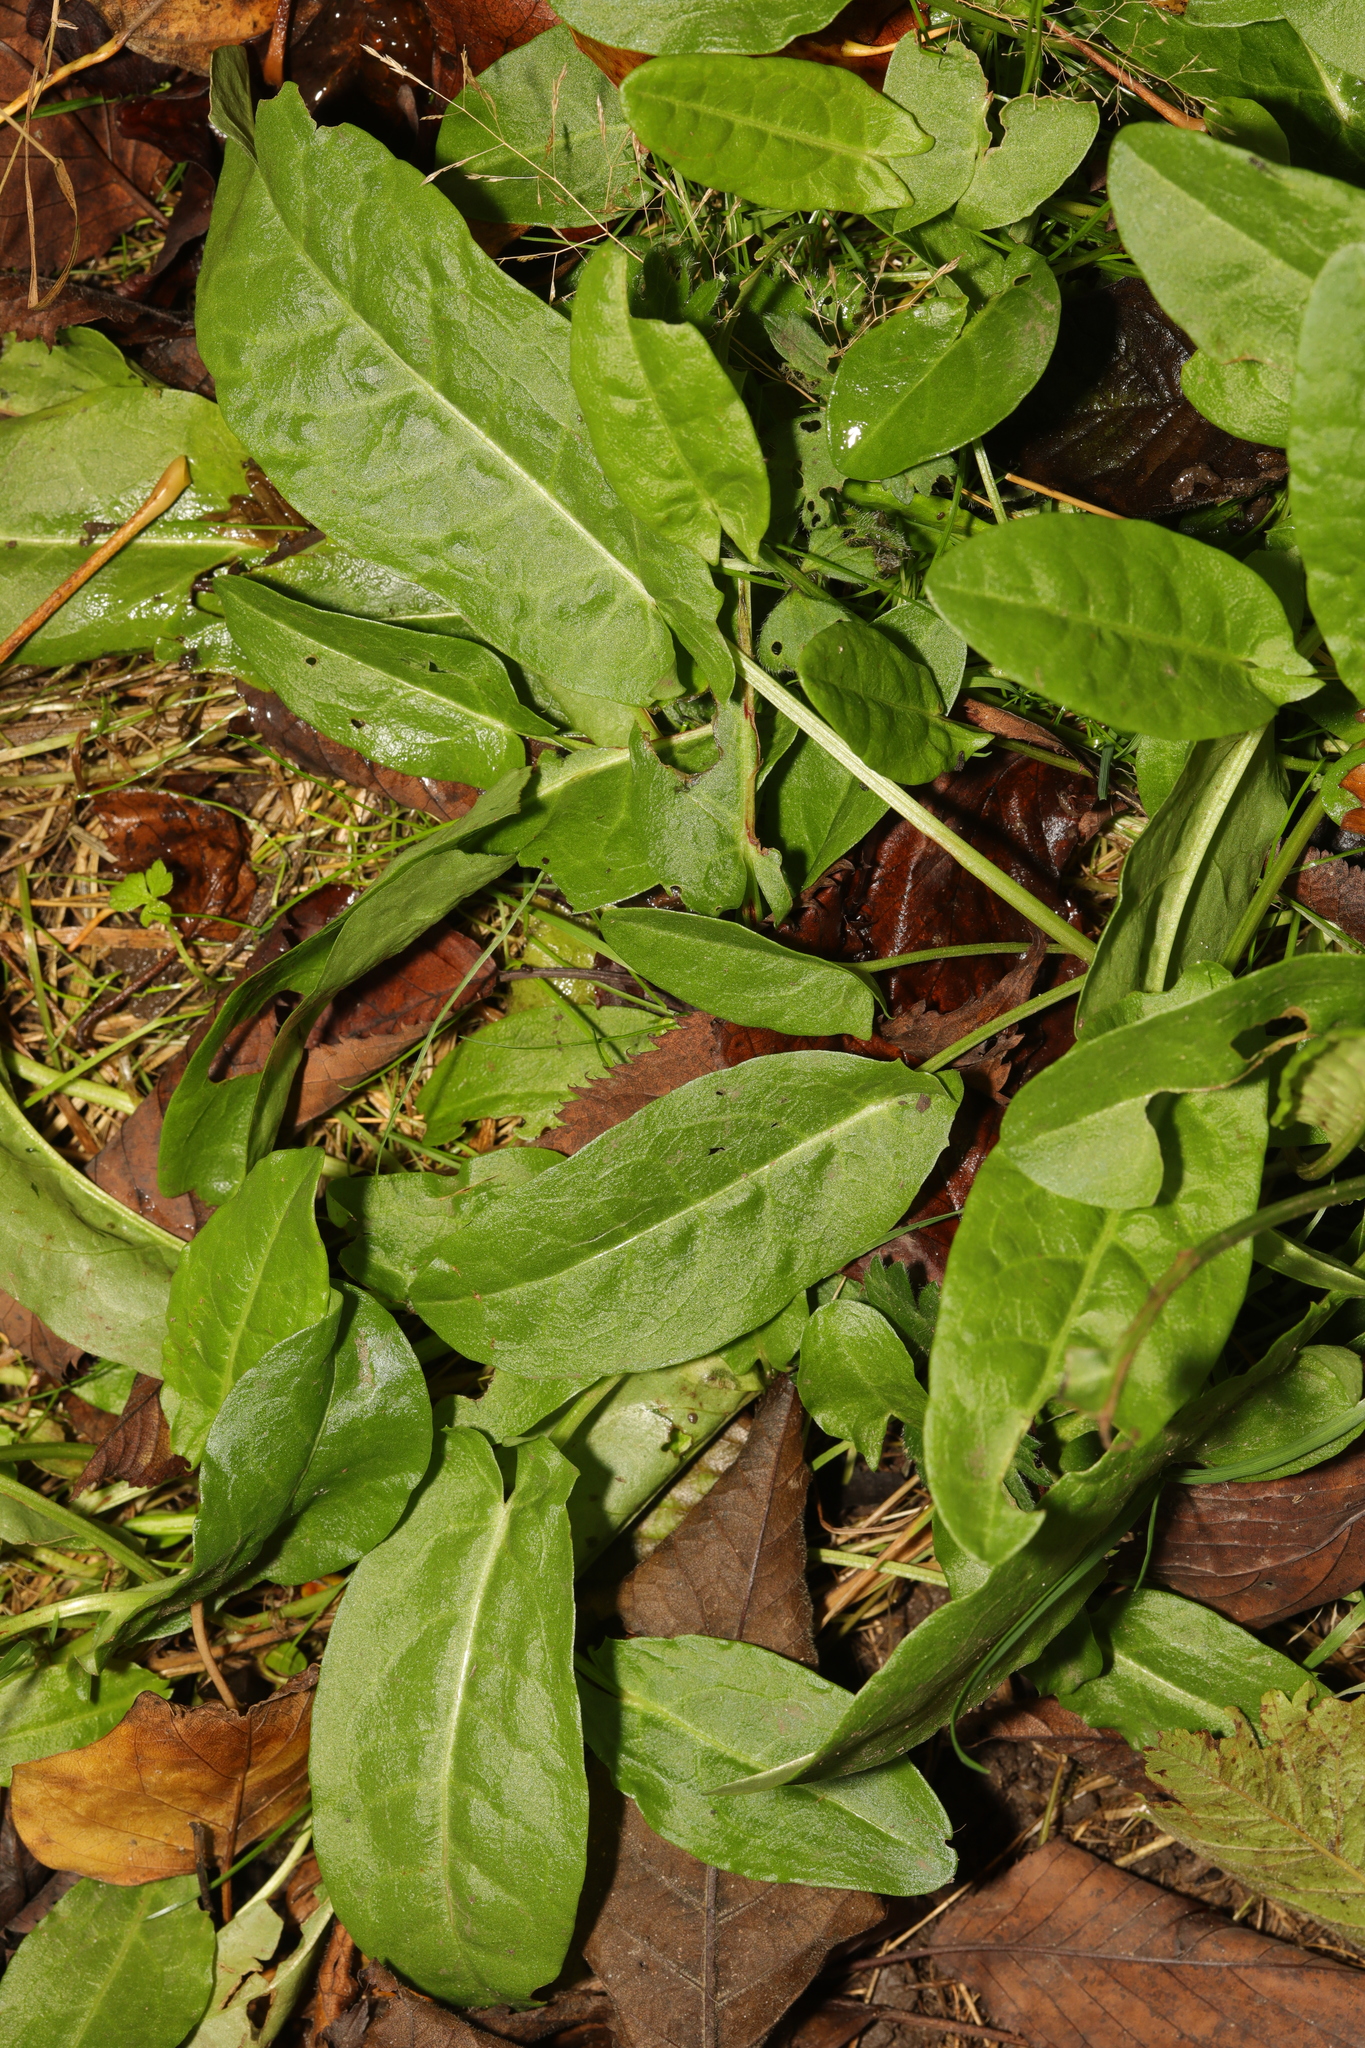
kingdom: Plantae
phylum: Tracheophyta
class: Magnoliopsida
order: Caryophyllales
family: Polygonaceae
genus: Rumex
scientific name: Rumex acetosa
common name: Garden sorrel
